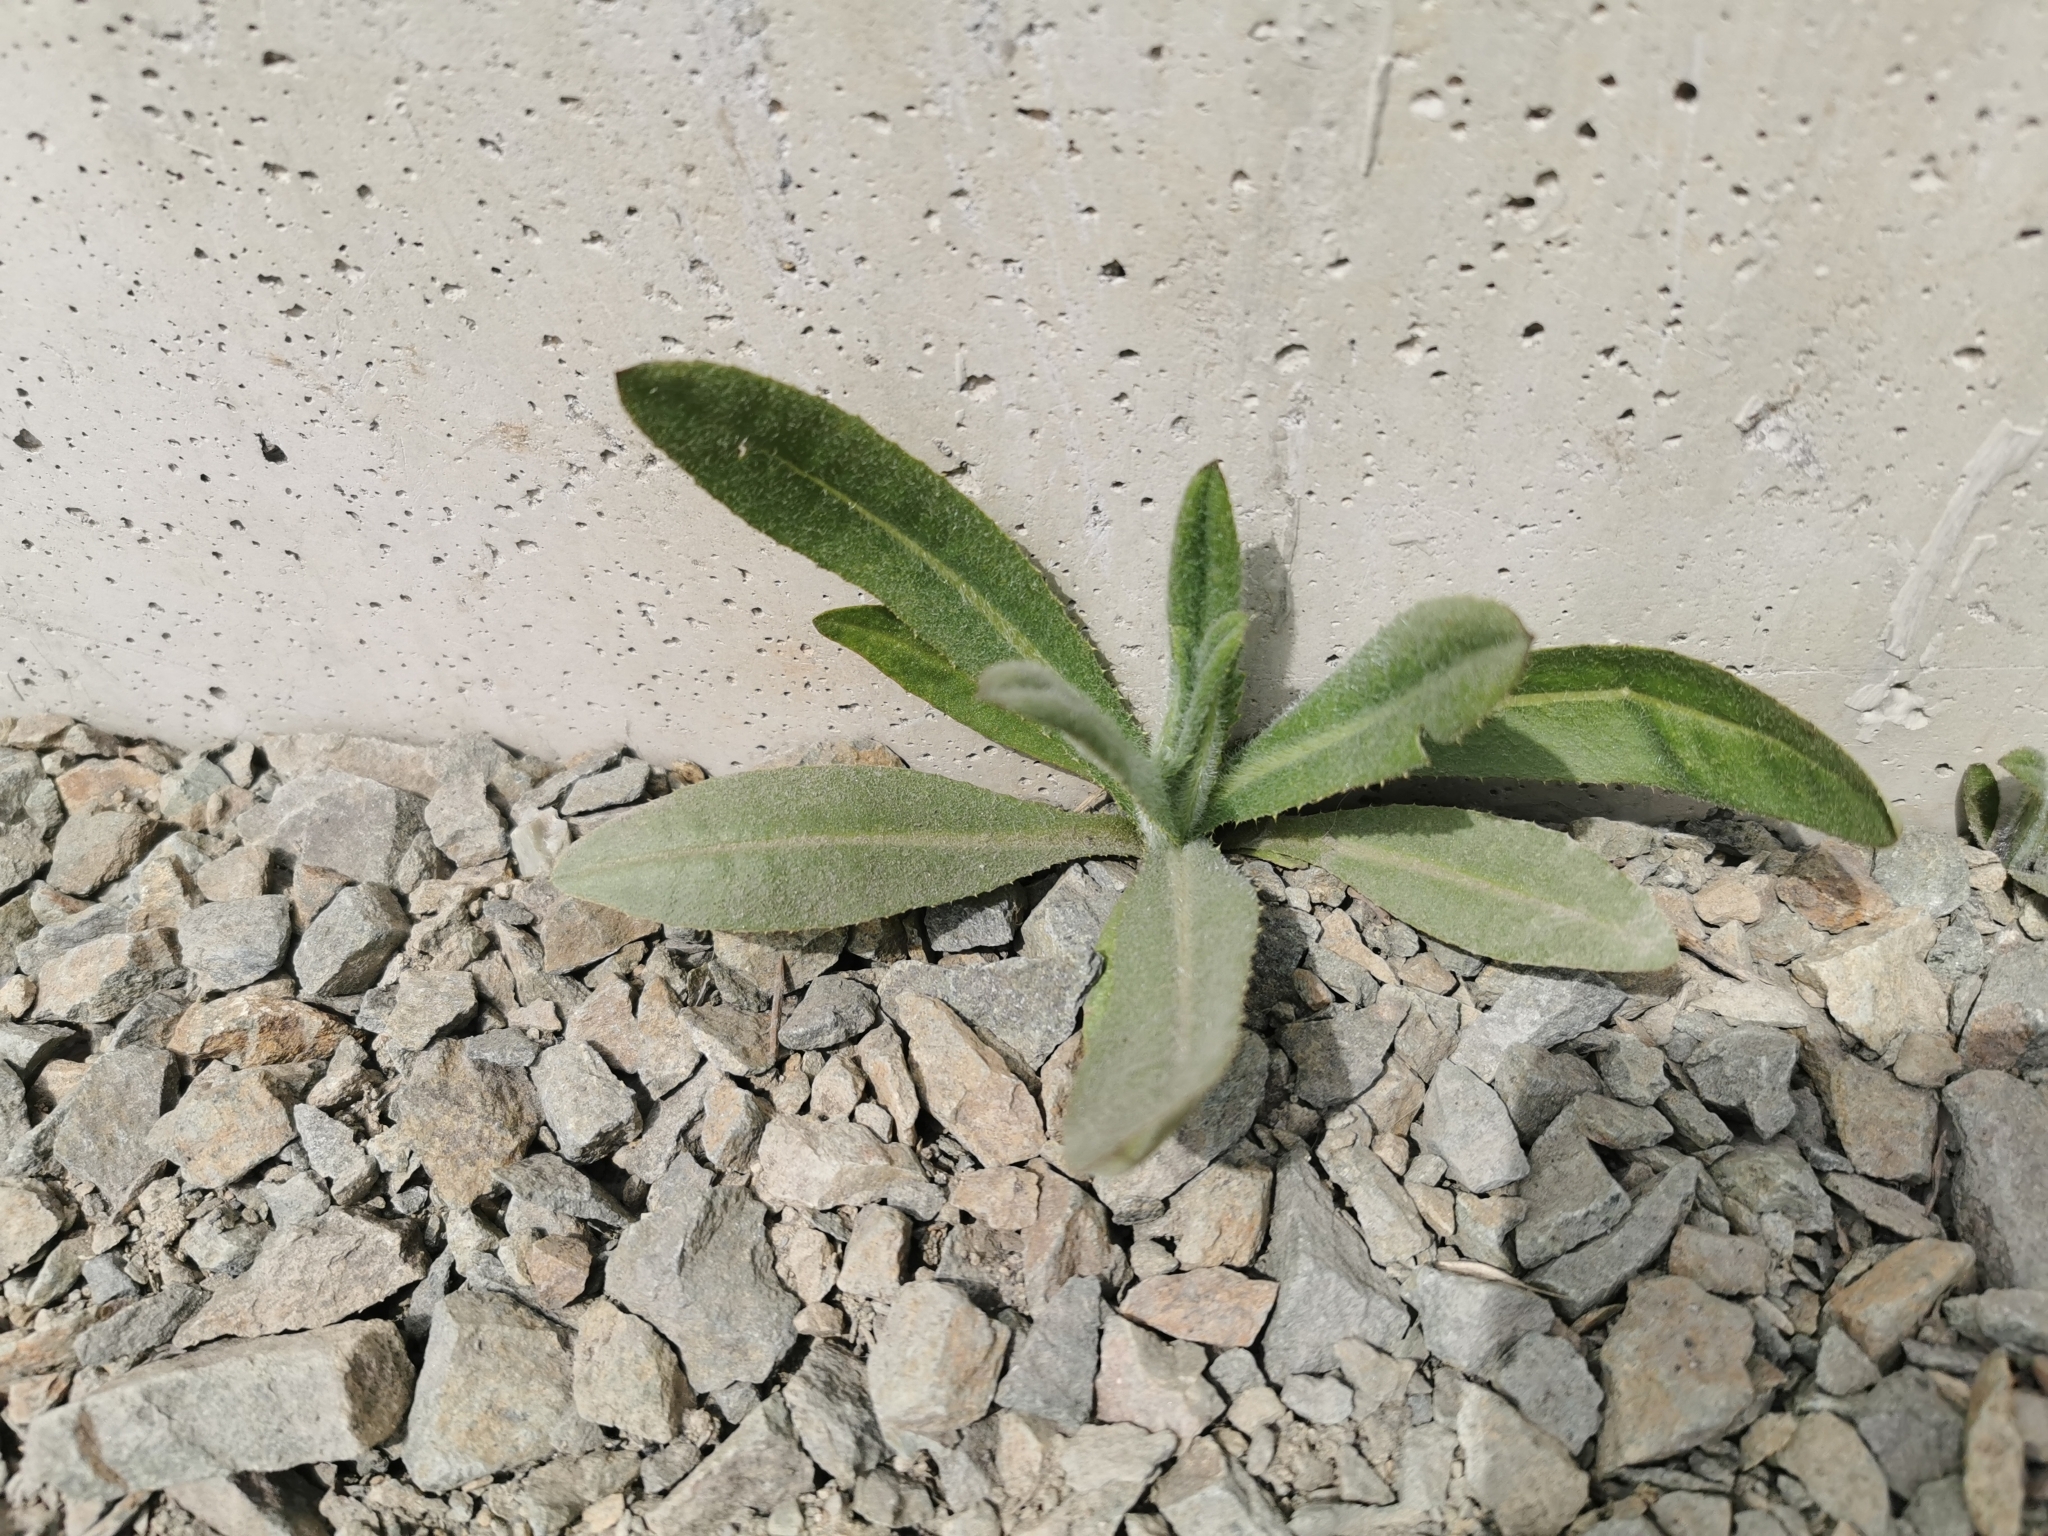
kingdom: Plantae
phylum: Tracheophyta
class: Magnoliopsida
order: Asterales
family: Asteraceae
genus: Cirsium
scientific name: Cirsium arvense
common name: Creeping thistle
